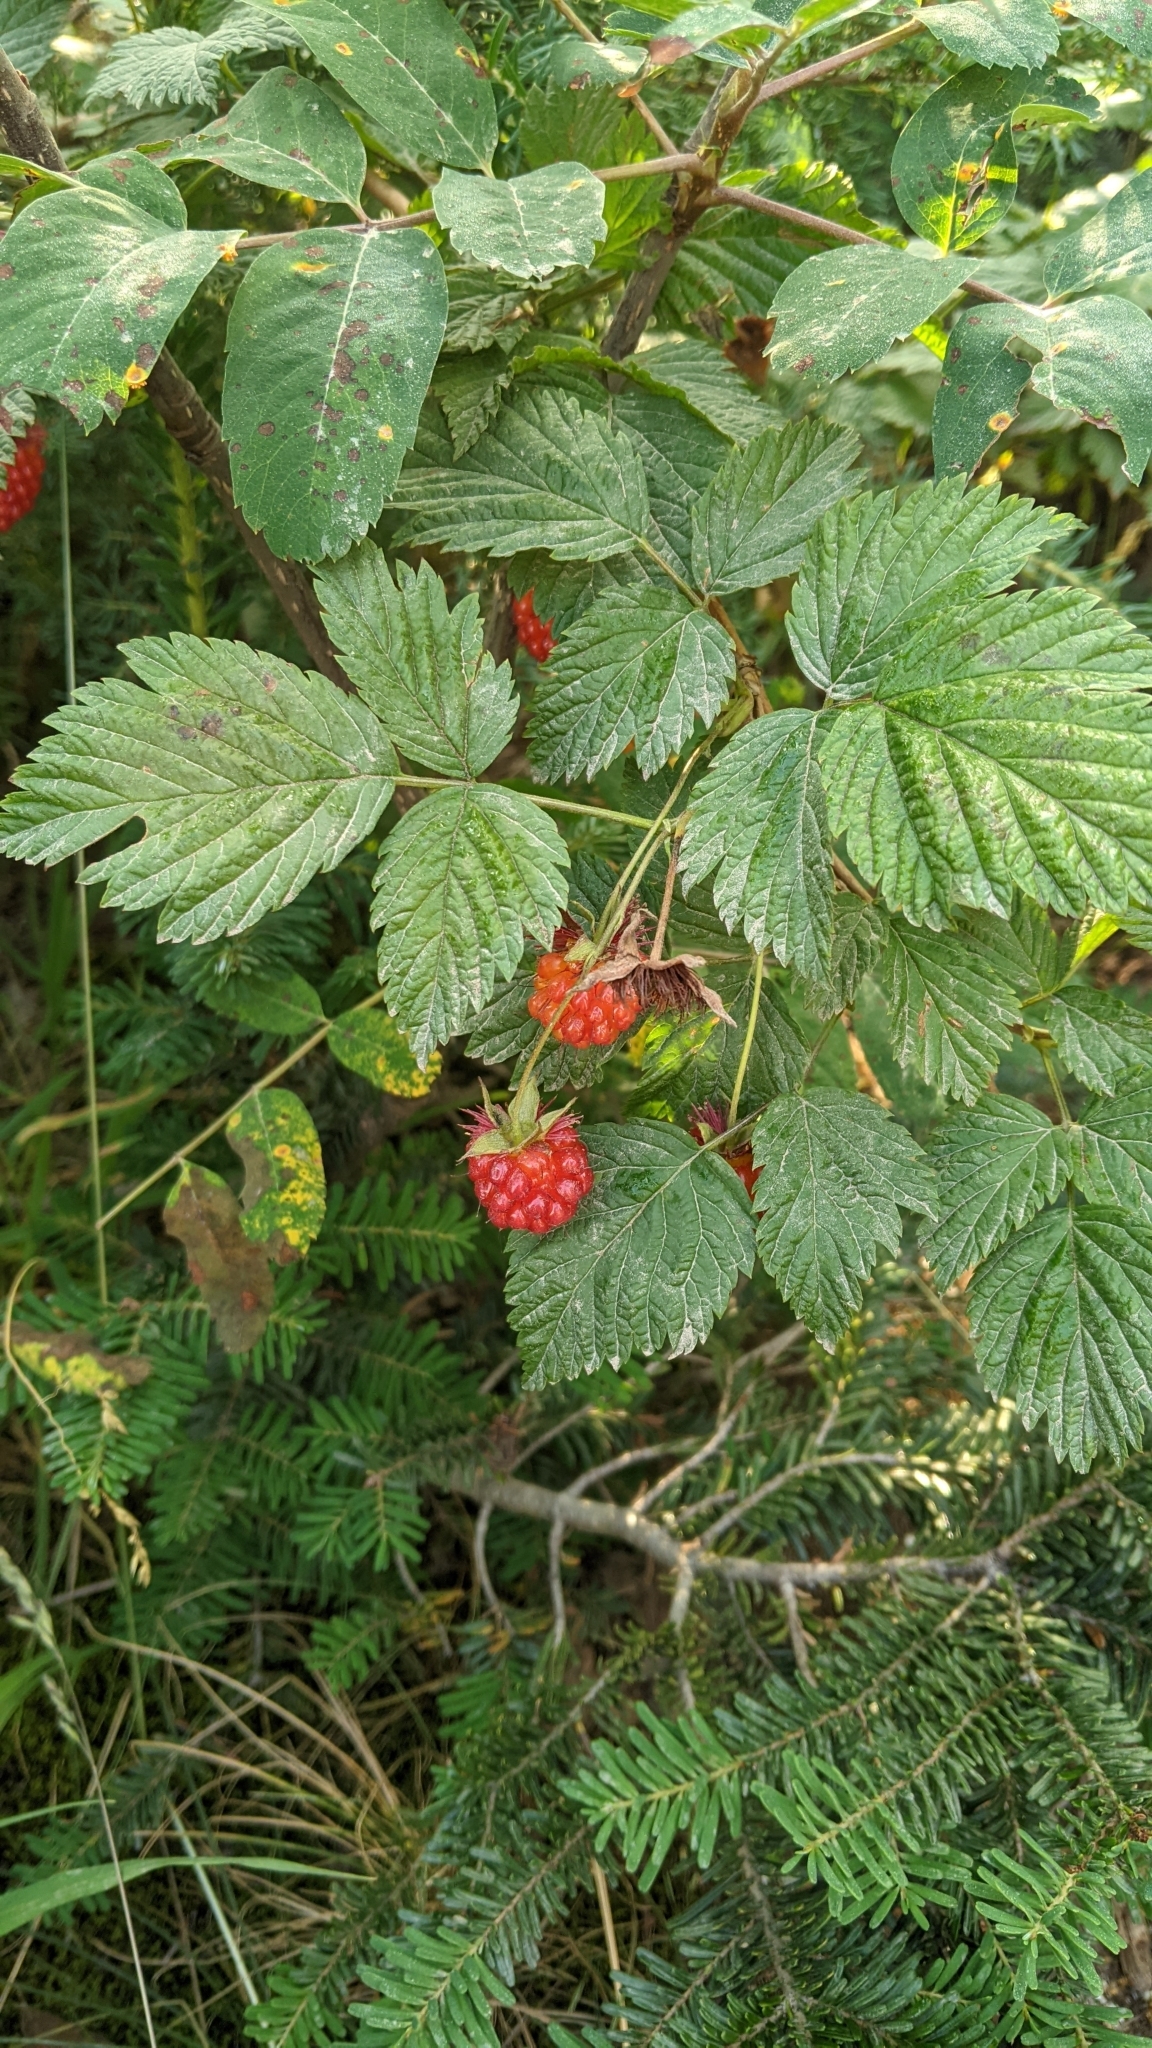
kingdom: Plantae
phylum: Tracheophyta
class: Magnoliopsida
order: Rosales
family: Rosaceae
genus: Rubus
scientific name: Rubus idaeus
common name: Raspberry
